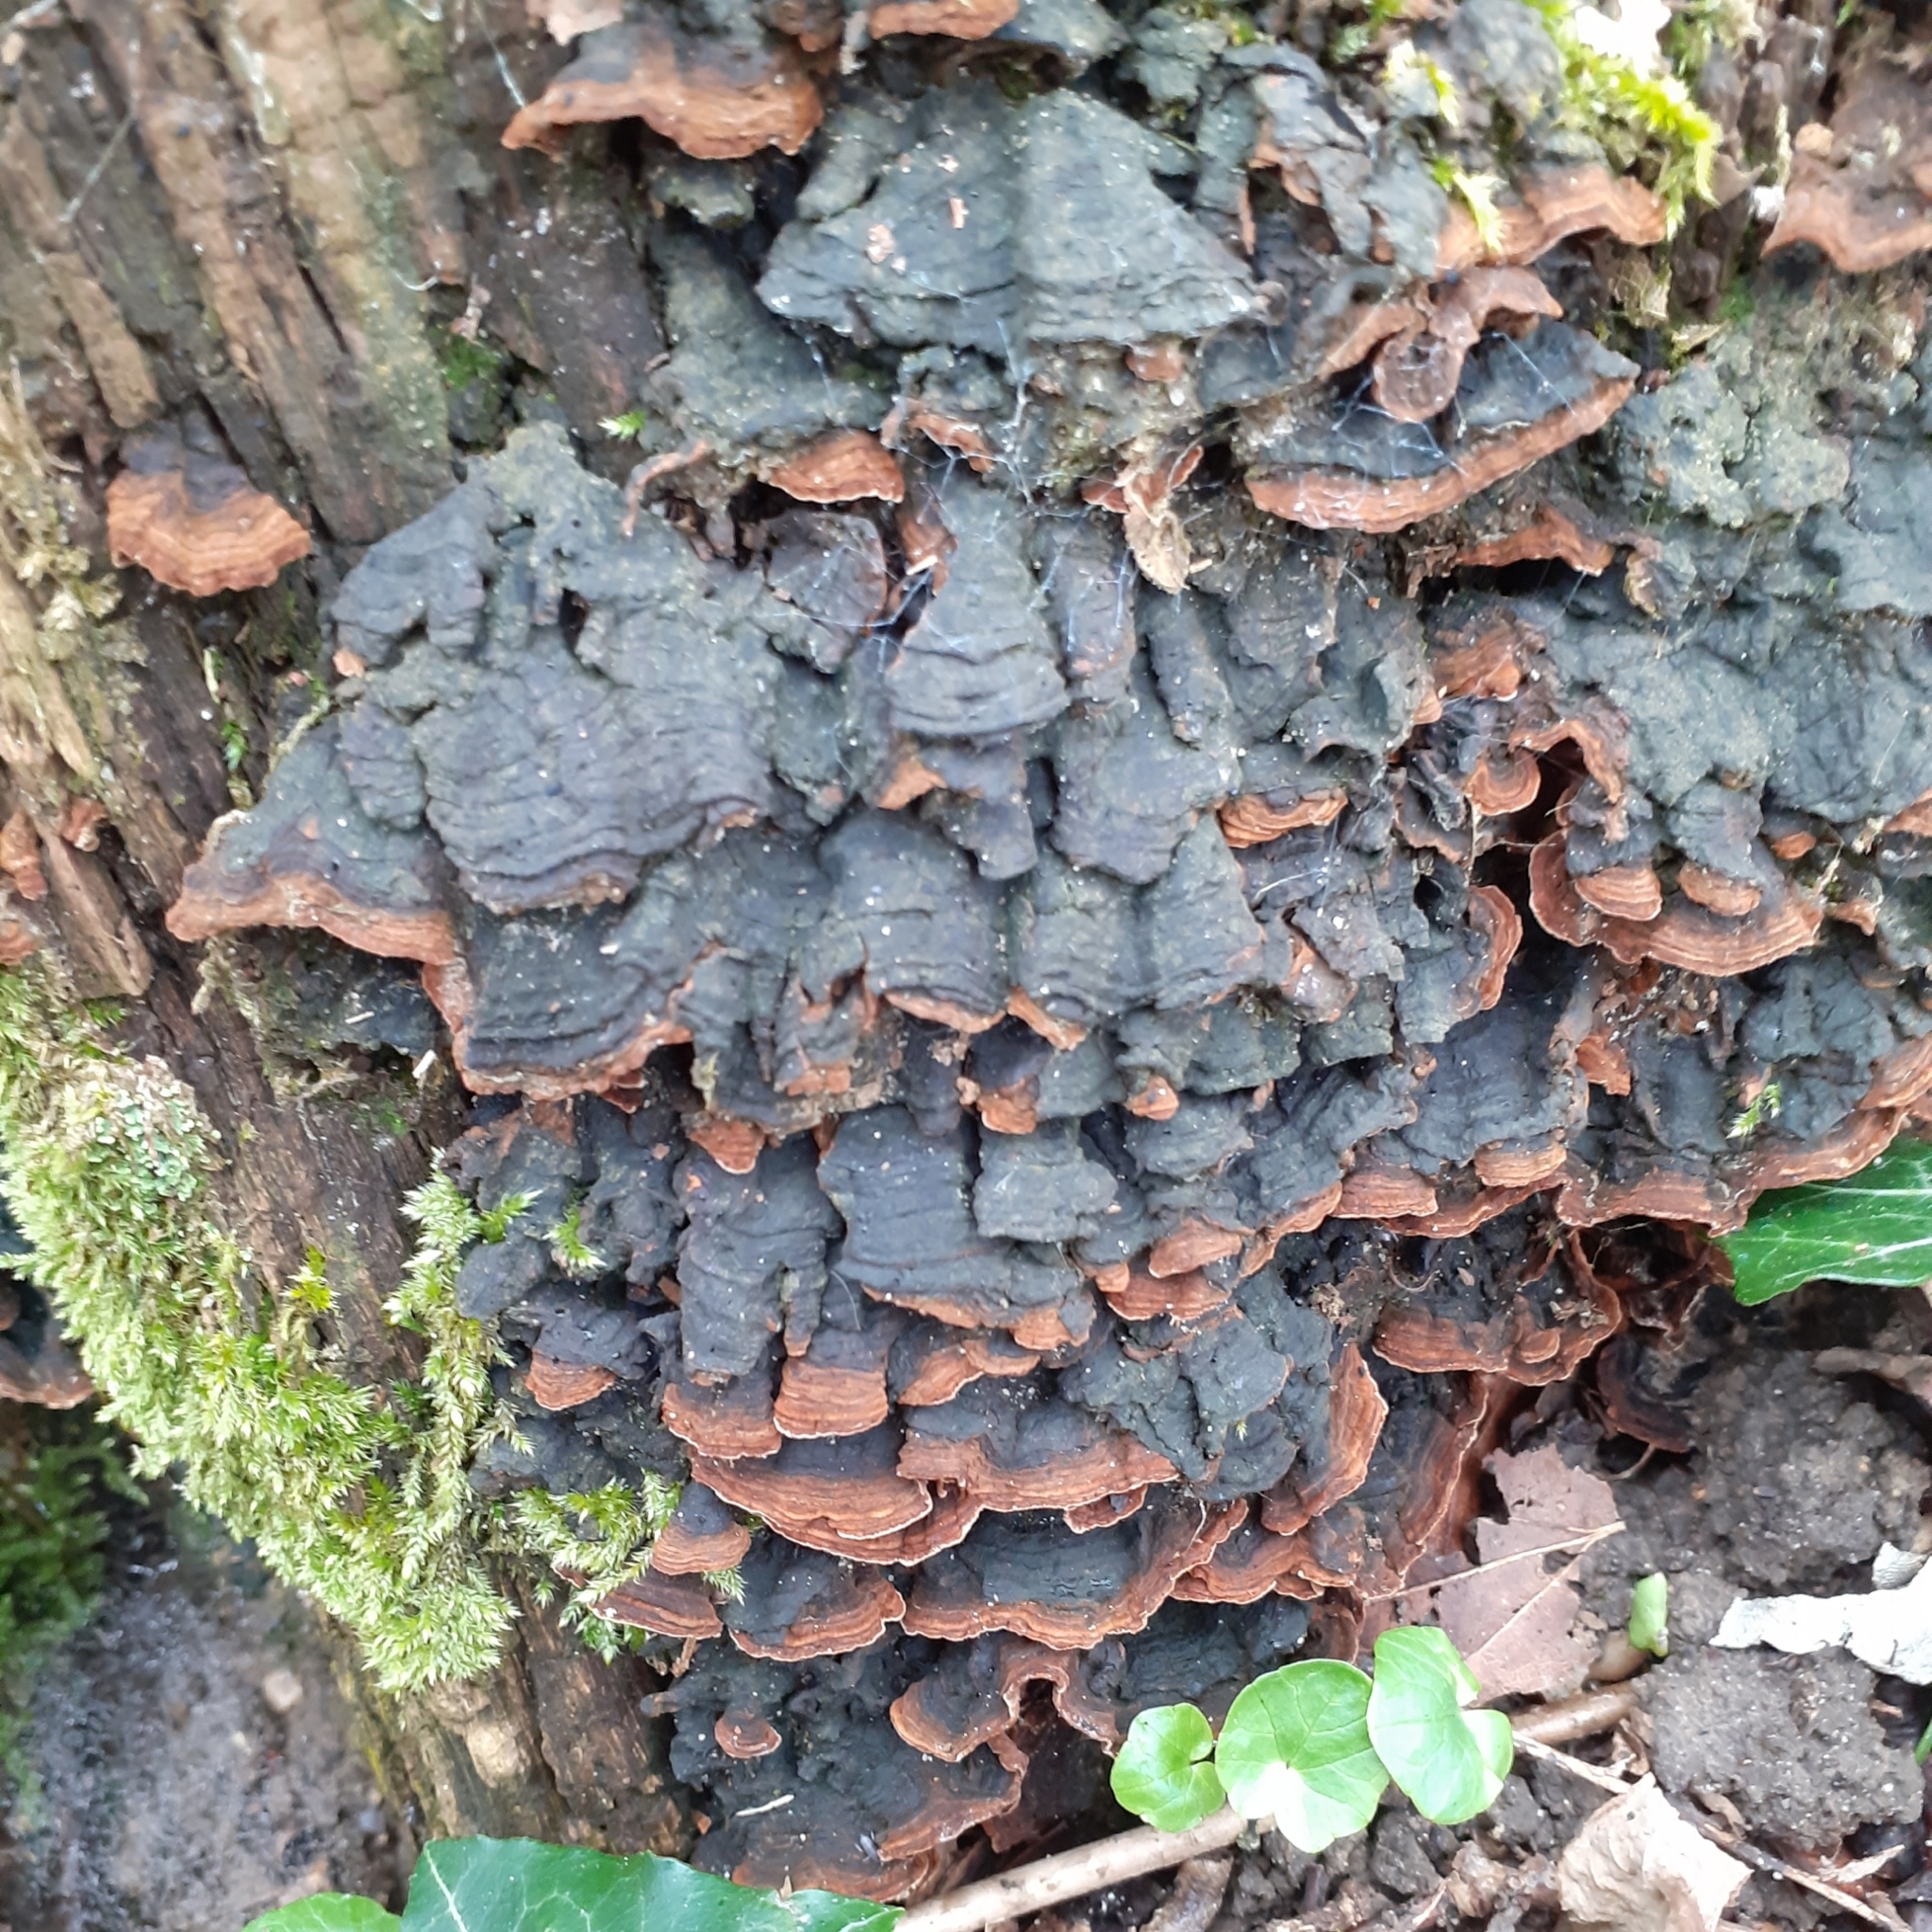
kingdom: Fungi
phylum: Basidiomycota
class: Agaricomycetes
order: Hymenochaetales
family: Hymenochaetaceae
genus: Hymenochaete
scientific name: Hymenochaete rubiginosa
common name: Oak curtain crust
